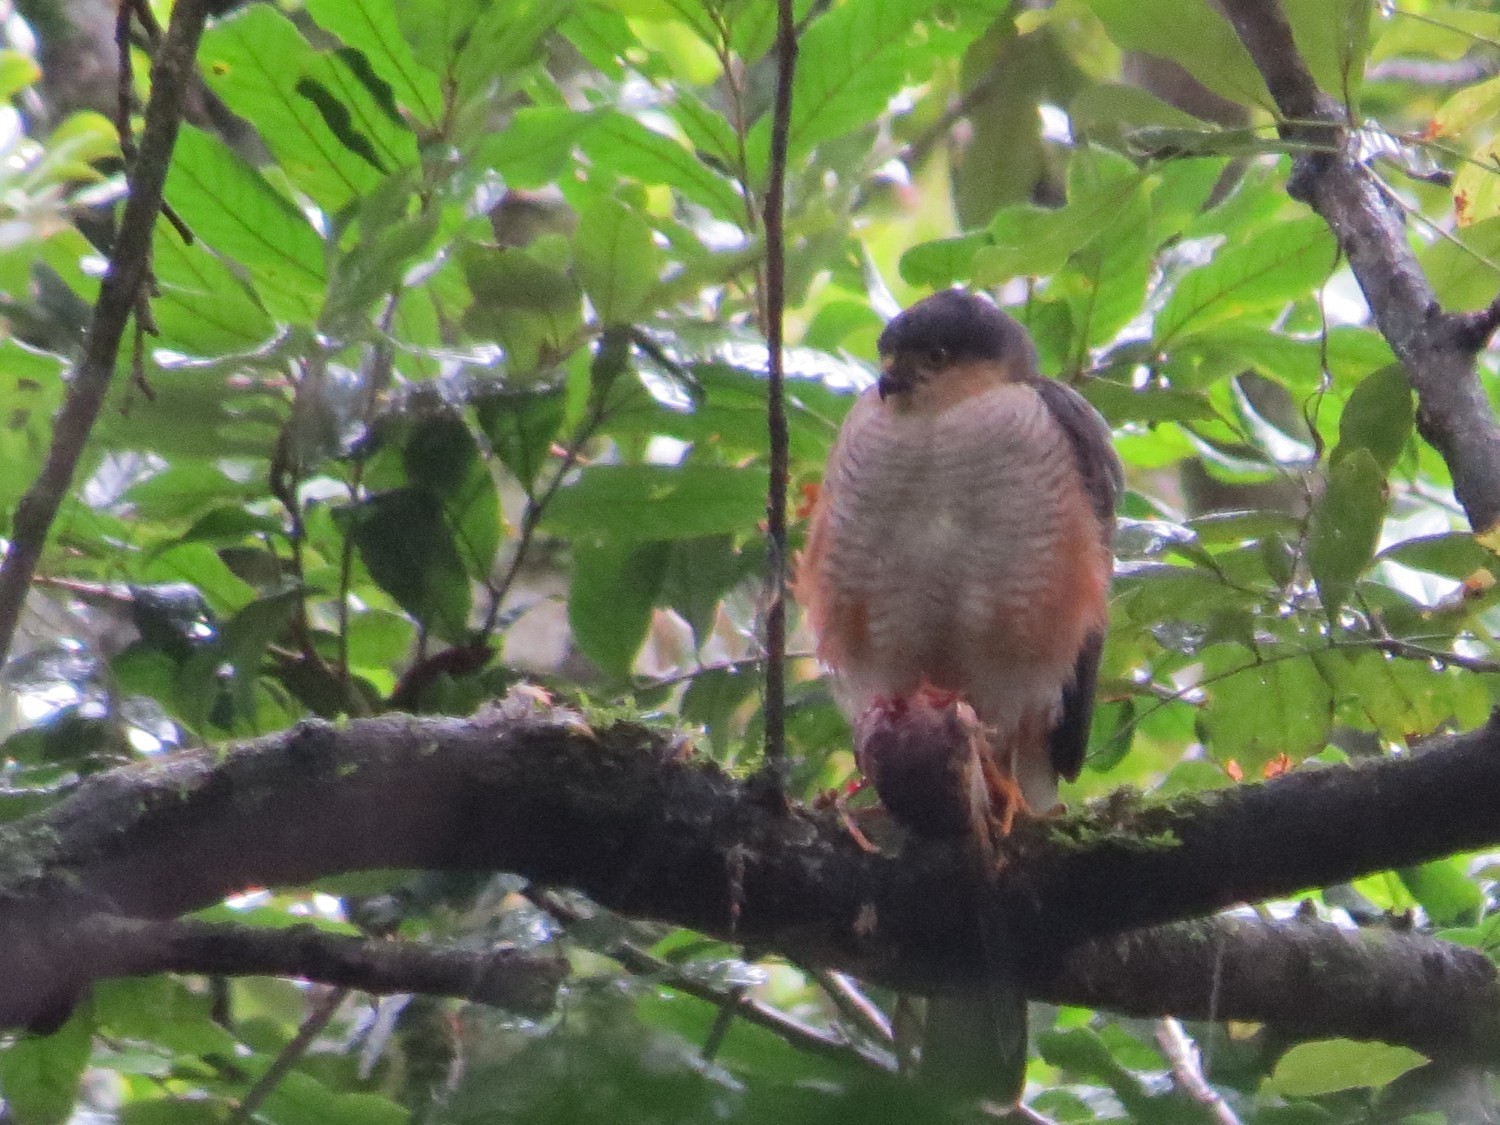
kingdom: Animalia
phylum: Chordata
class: Aves
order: Accipitriformes
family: Accipitridae
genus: Accipiter
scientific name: Accipiter striatus
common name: Sharp-shinned hawk
